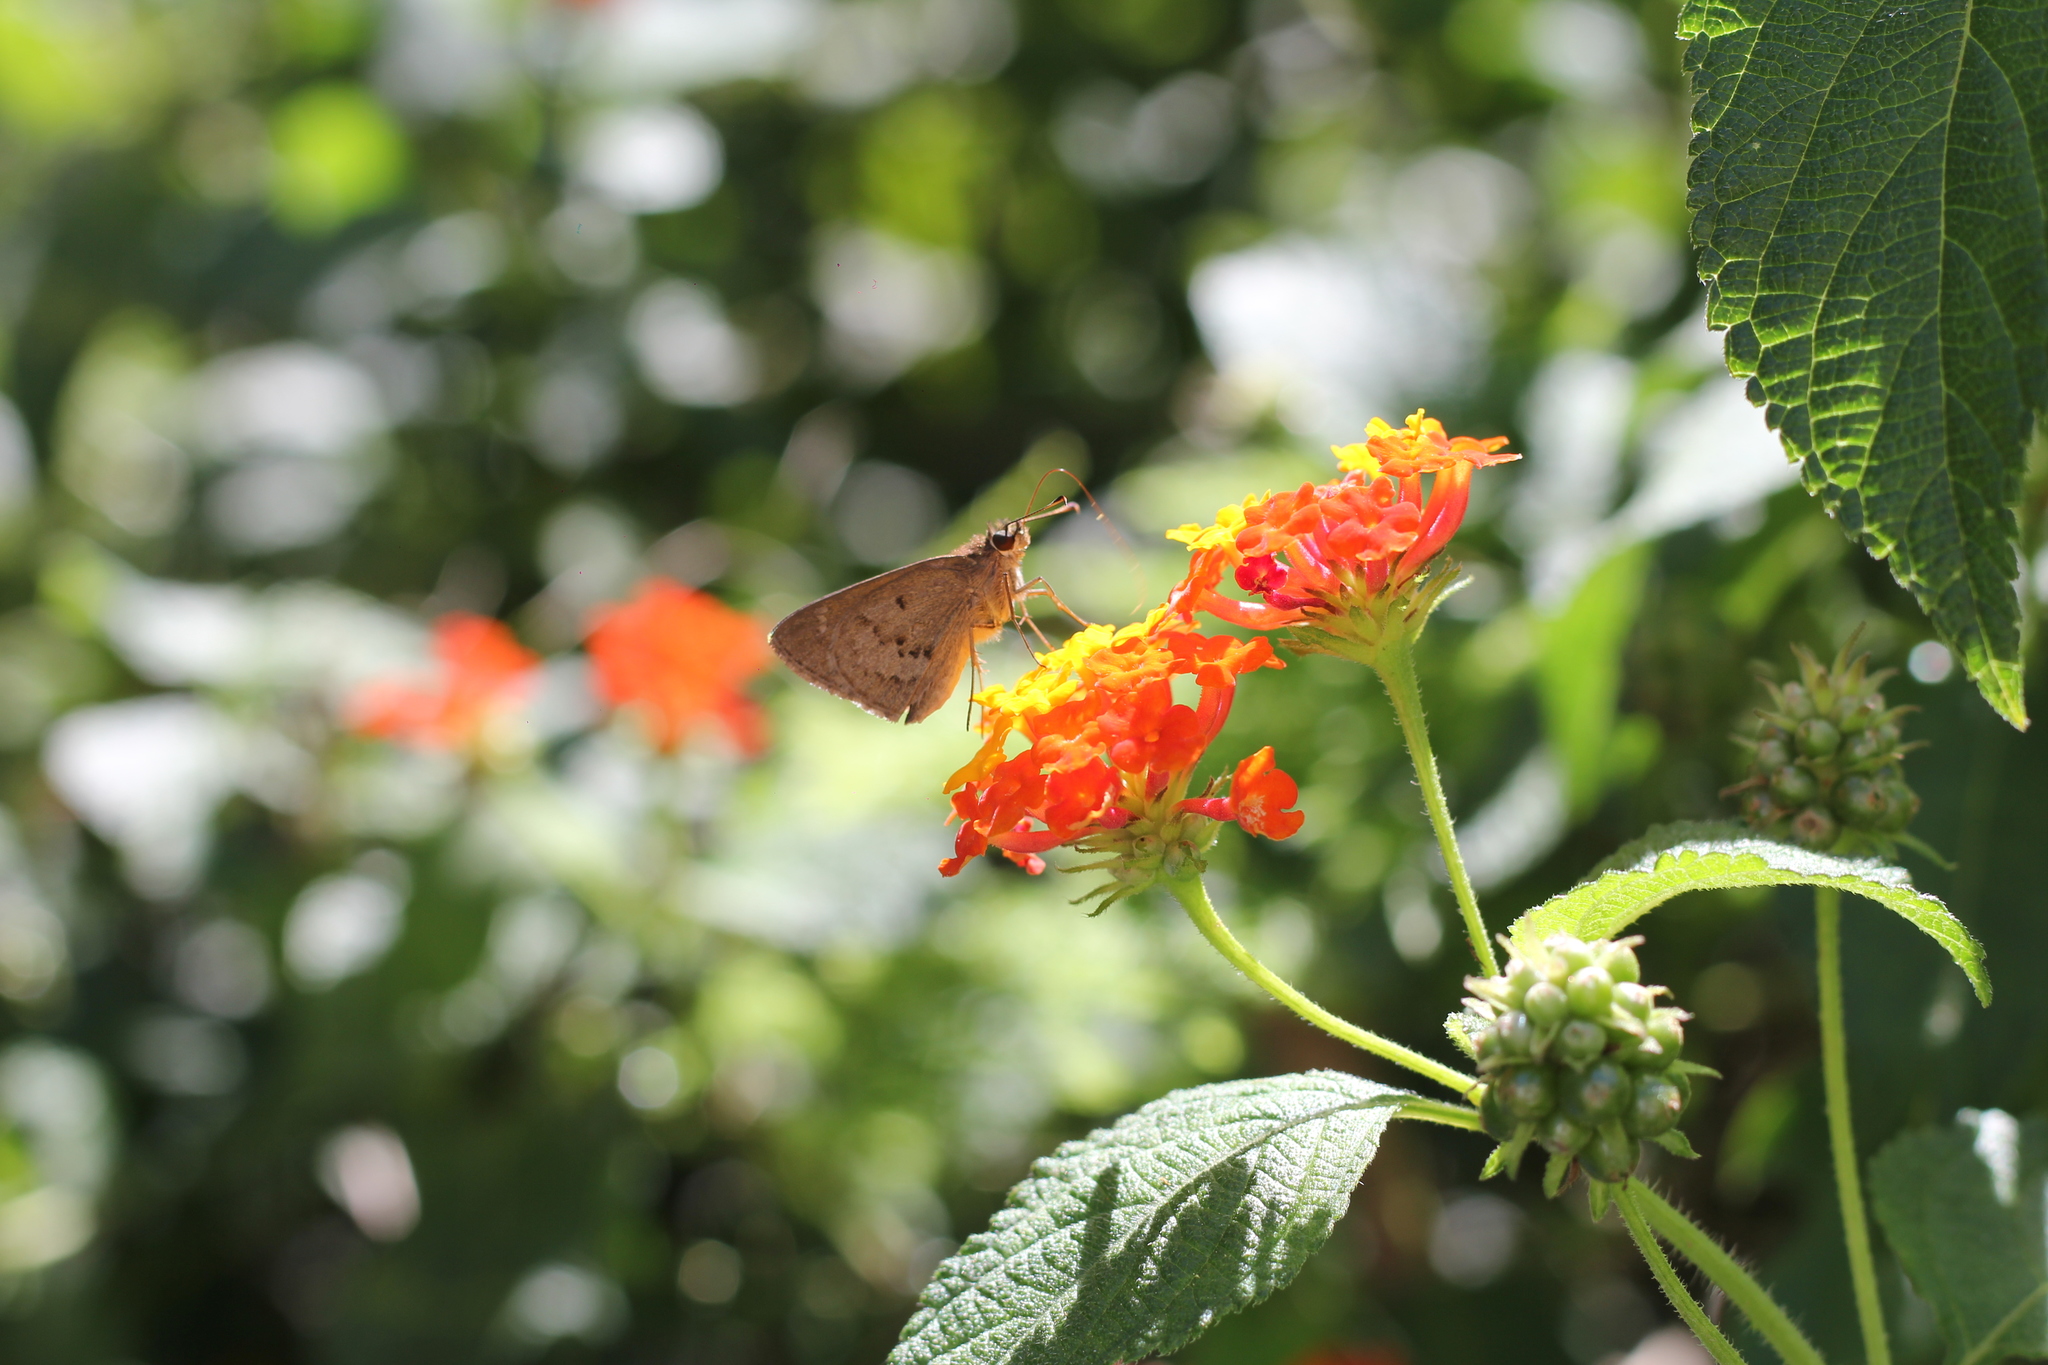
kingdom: Animalia
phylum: Arthropoda
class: Insecta
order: Lepidoptera
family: Hesperiidae
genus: Cymaenes
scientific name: Cymaenes gisca
